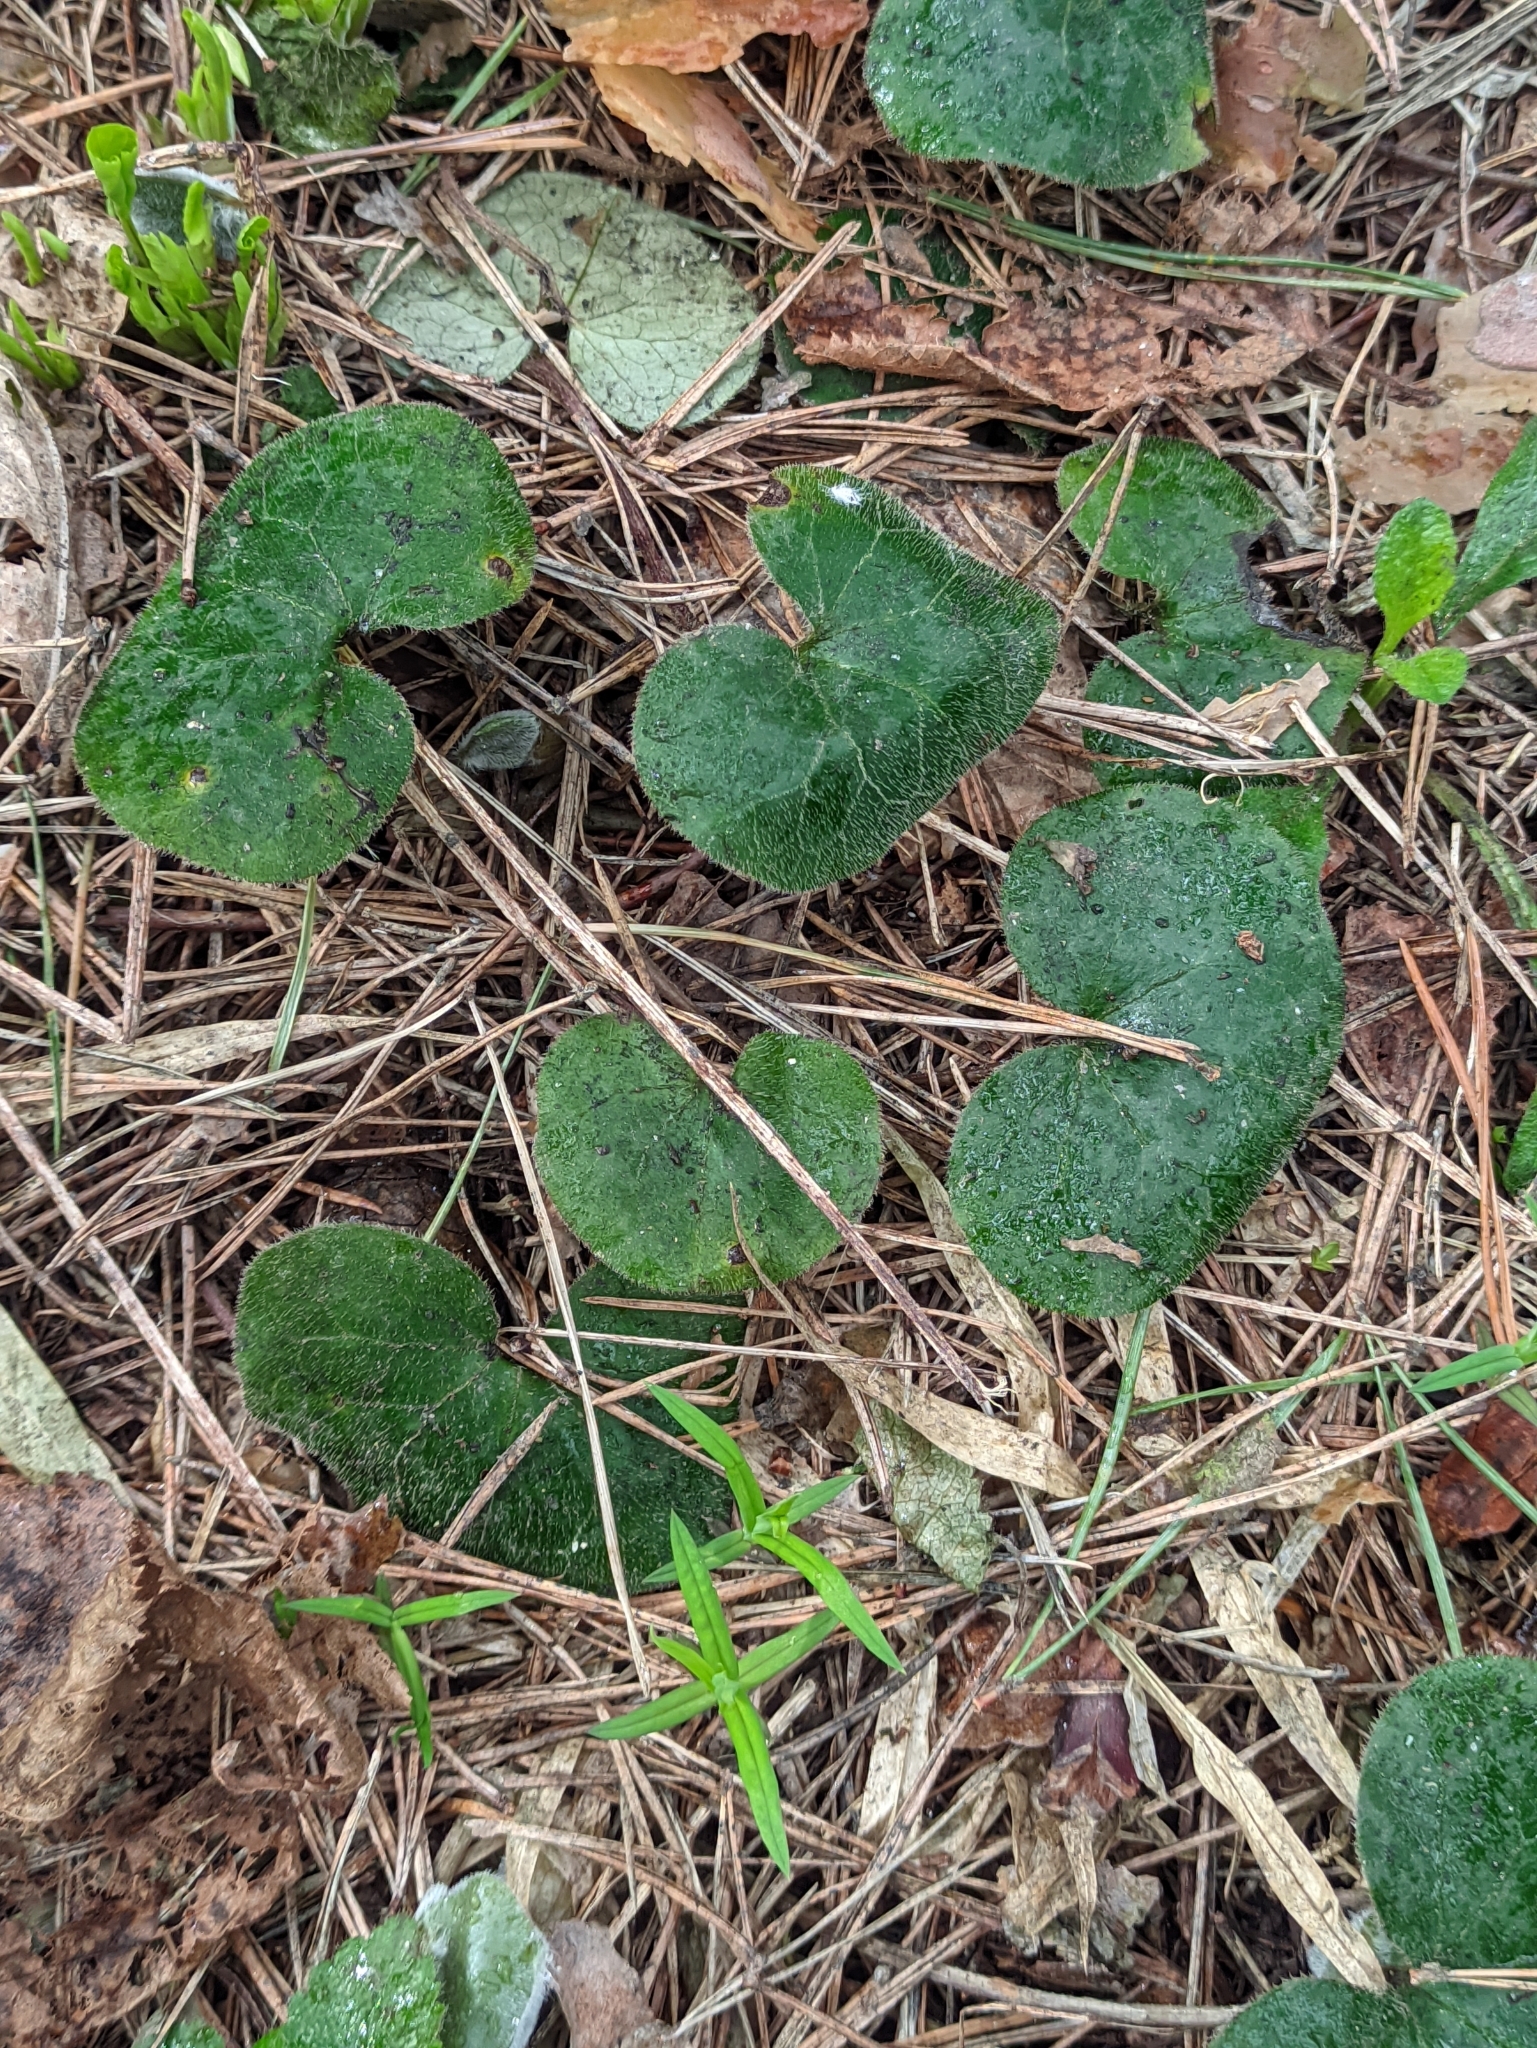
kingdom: Plantae
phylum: Tracheophyta
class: Magnoliopsida
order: Piperales
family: Aristolochiaceae
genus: Asarum
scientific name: Asarum europaeum
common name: Asarabacca
